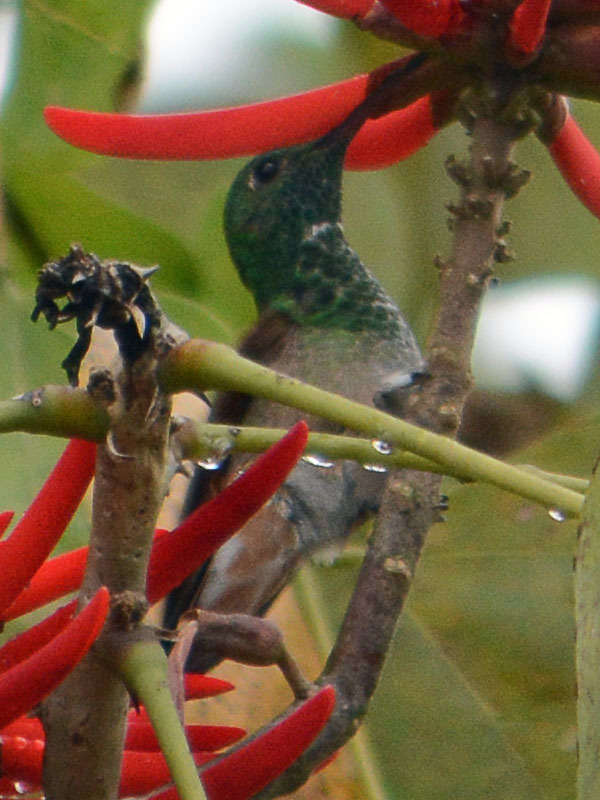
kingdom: Animalia
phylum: Chordata
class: Aves
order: Apodiformes
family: Trochilidae
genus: Saucerottia
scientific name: Saucerottia beryllina
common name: Berylline hummingbird
